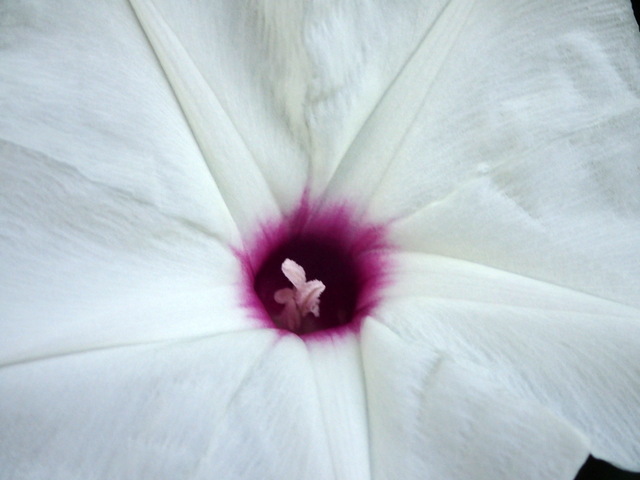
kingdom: Plantae
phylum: Tracheophyta
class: Magnoliopsida
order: Solanales
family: Convolvulaceae
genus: Ipomoea
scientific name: Ipomoea pandurata
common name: Man-of-the-earth
